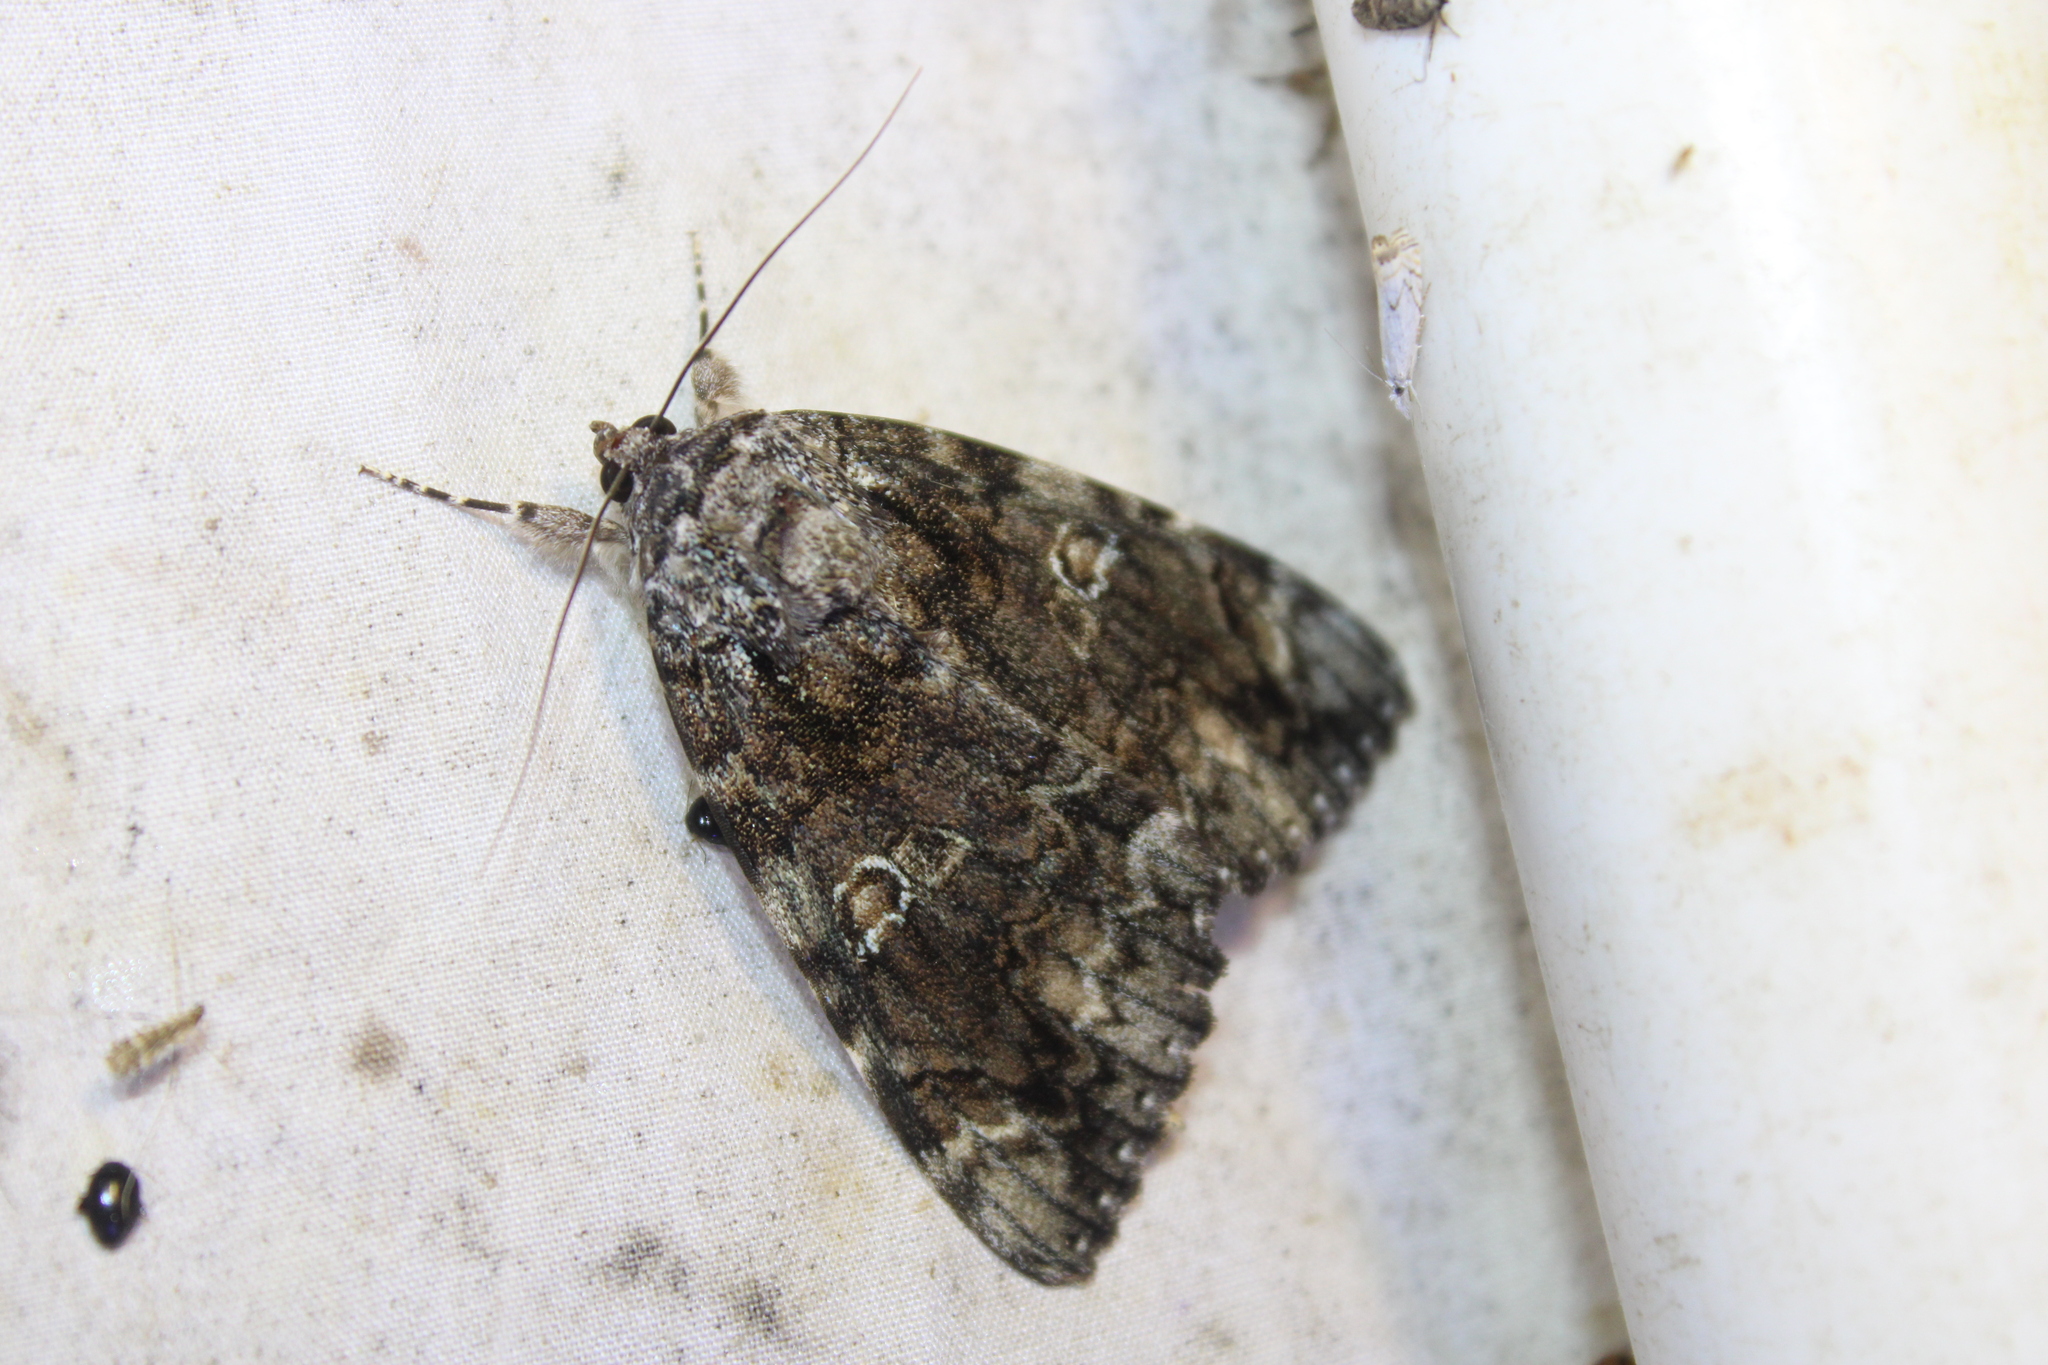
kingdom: Animalia
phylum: Arthropoda
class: Insecta
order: Lepidoptera
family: Erebidae
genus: Catocala
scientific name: Catocala ilia
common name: Ilia underwing
